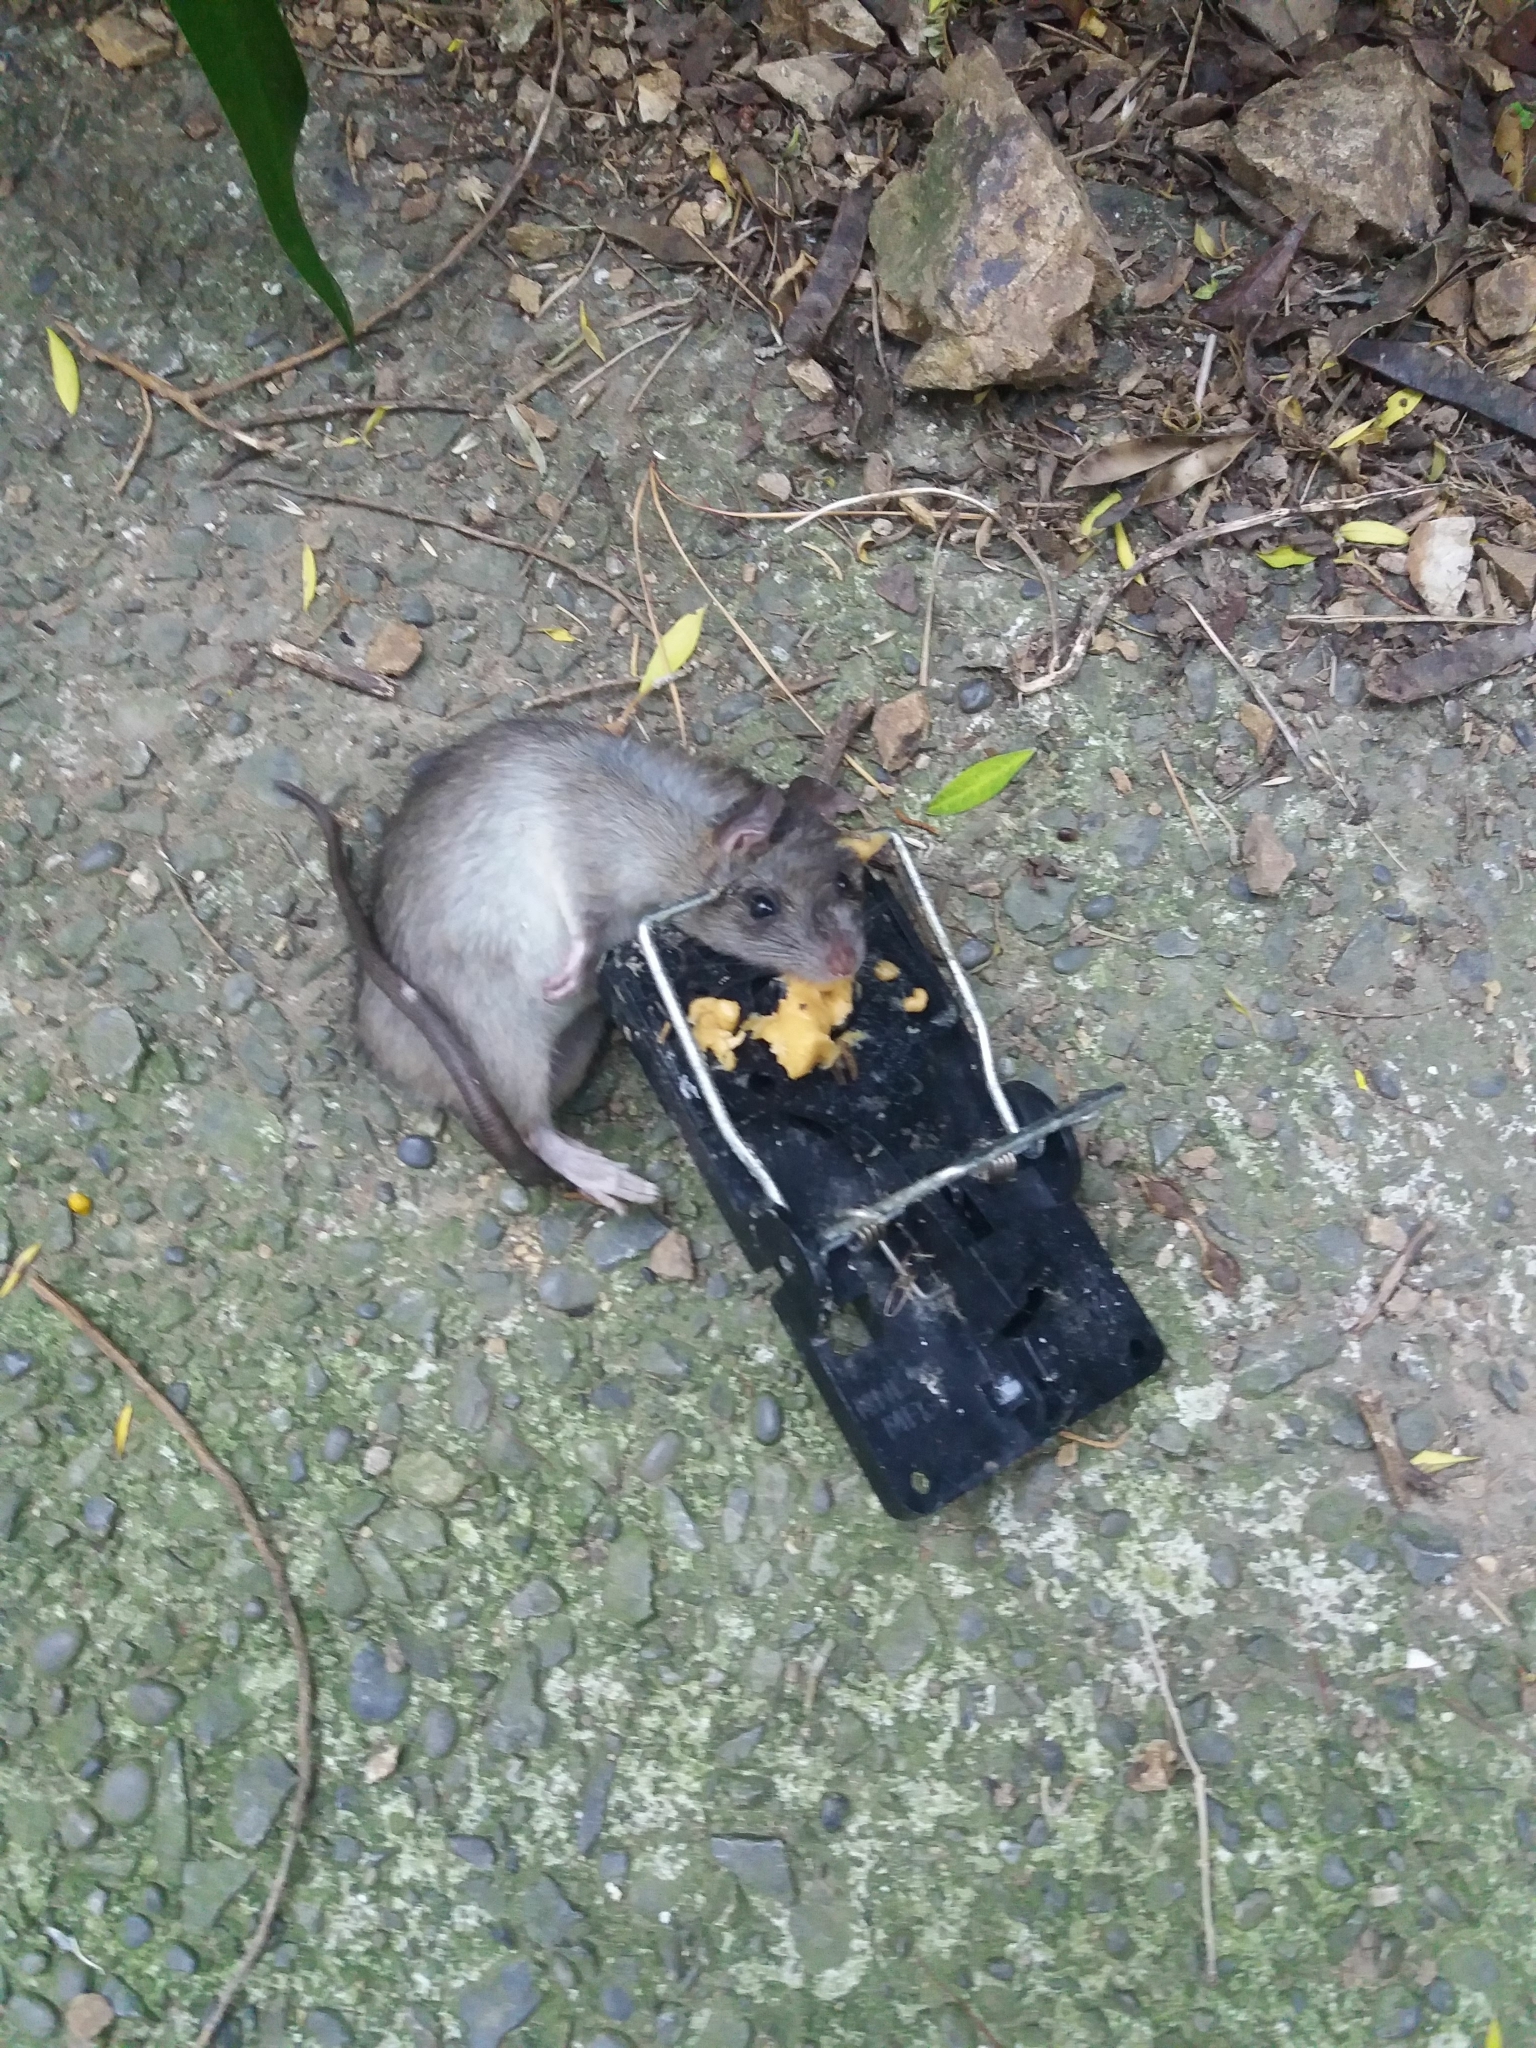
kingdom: Animalia
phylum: Chordata
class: Mammalia
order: Rodentia
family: Muridae
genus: Rattus
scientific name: Rattus norvegicus
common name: Brown rat
